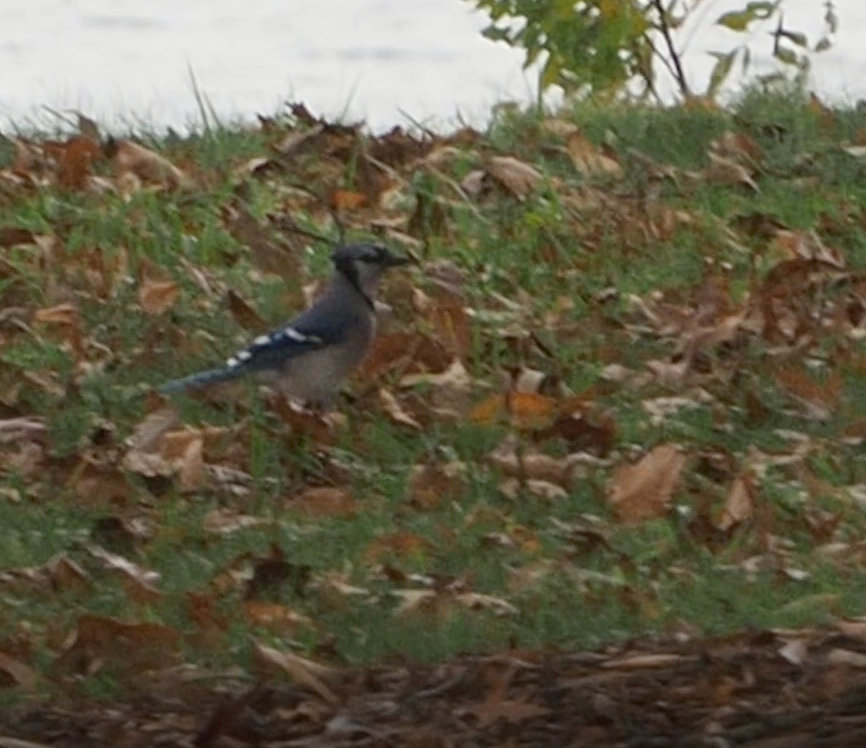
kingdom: Animalia
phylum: Chordata
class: Aves
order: Passeriformes
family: Corvidae
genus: Cyanocitta
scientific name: Cyanocitta cristata
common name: Blue jay
